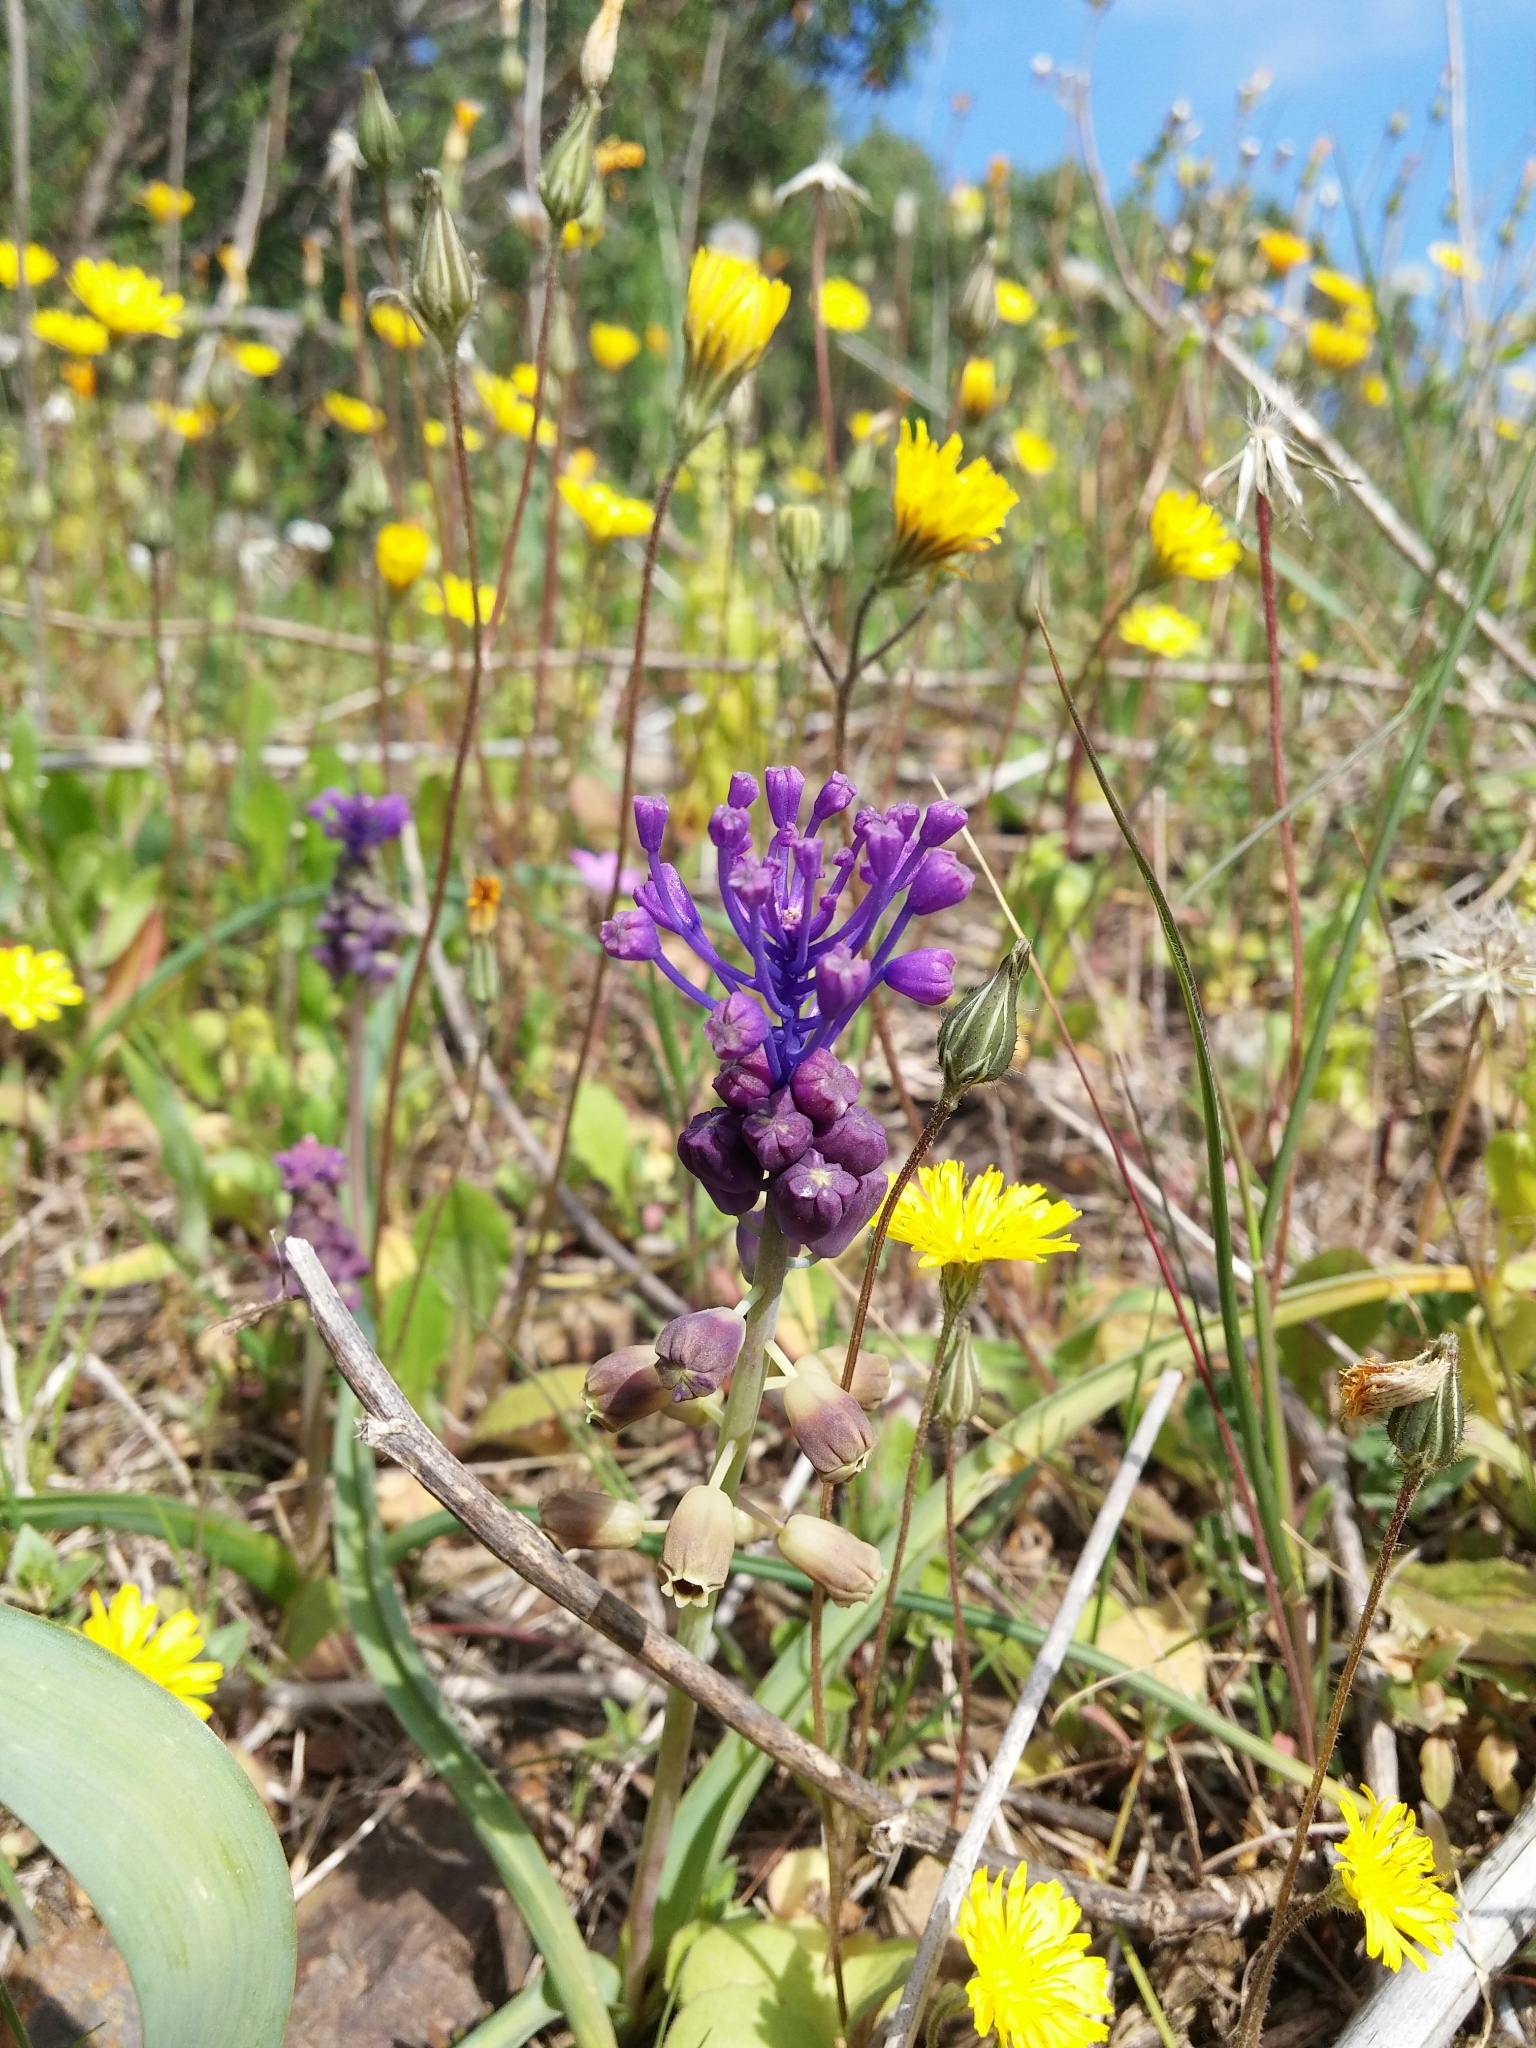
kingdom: Plantae
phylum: Tracheophyta
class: Liliopsida
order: Asparagales
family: Asparagaceae
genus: Muscari
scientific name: Muscari comosum
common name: Tassel hyacinth
